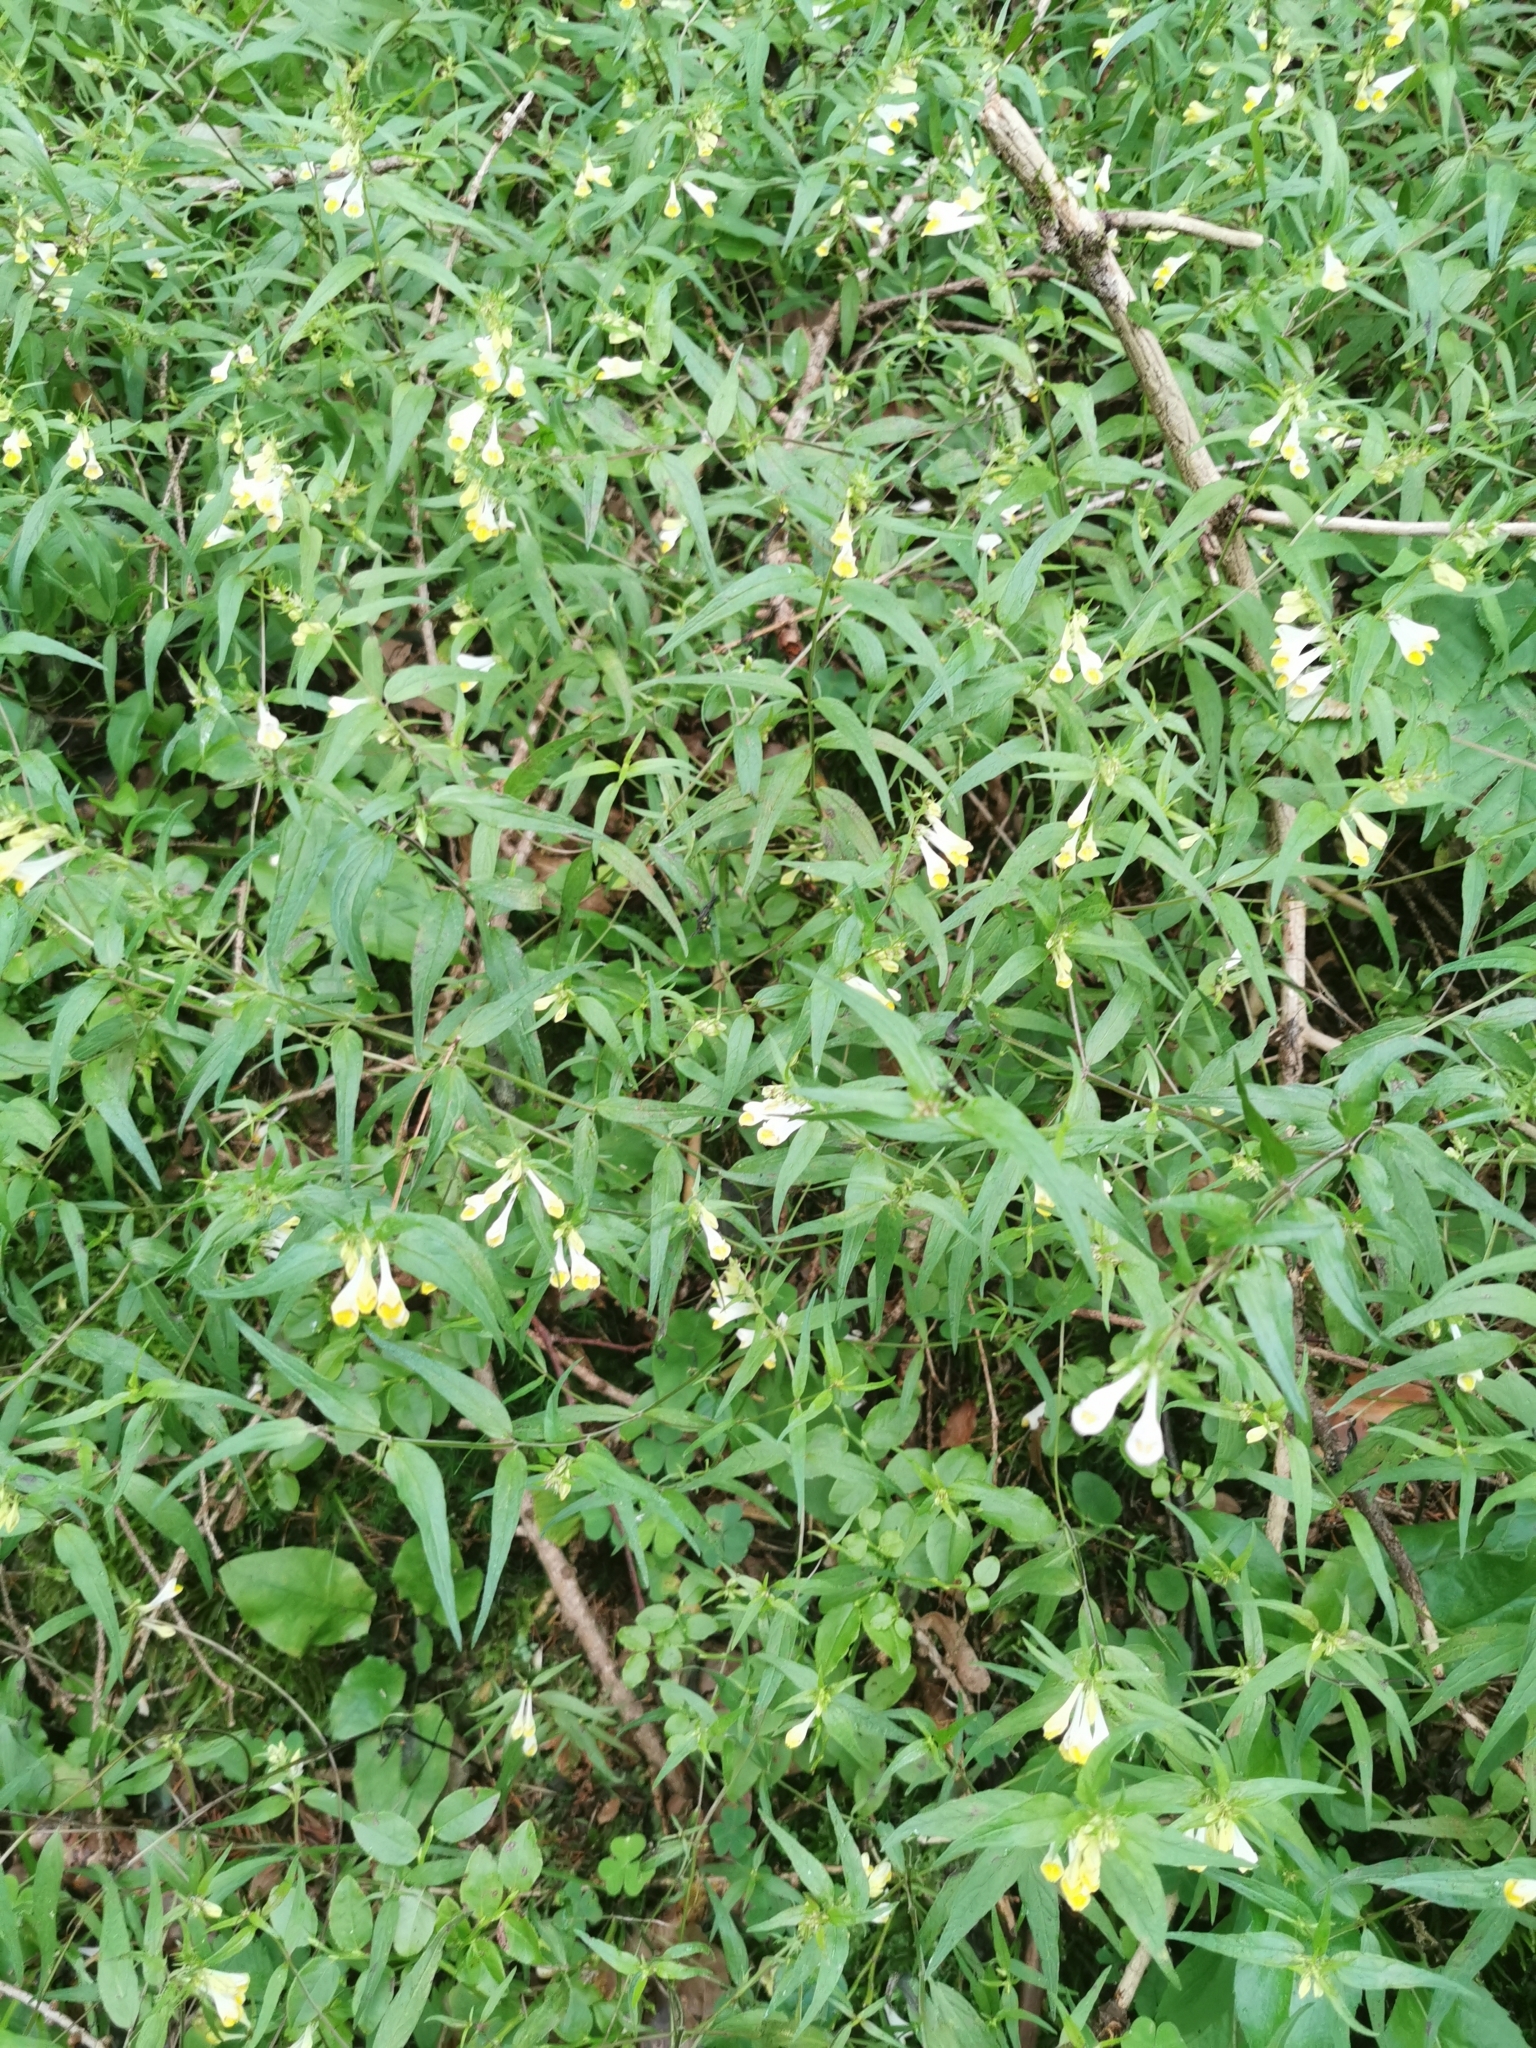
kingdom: Plantae
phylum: Tracheophyta
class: Magnoliopsida
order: Lamiales
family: Orobanchaceae
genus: Melampyrum
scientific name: Melampyrum pratense
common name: Common cow-wheat
